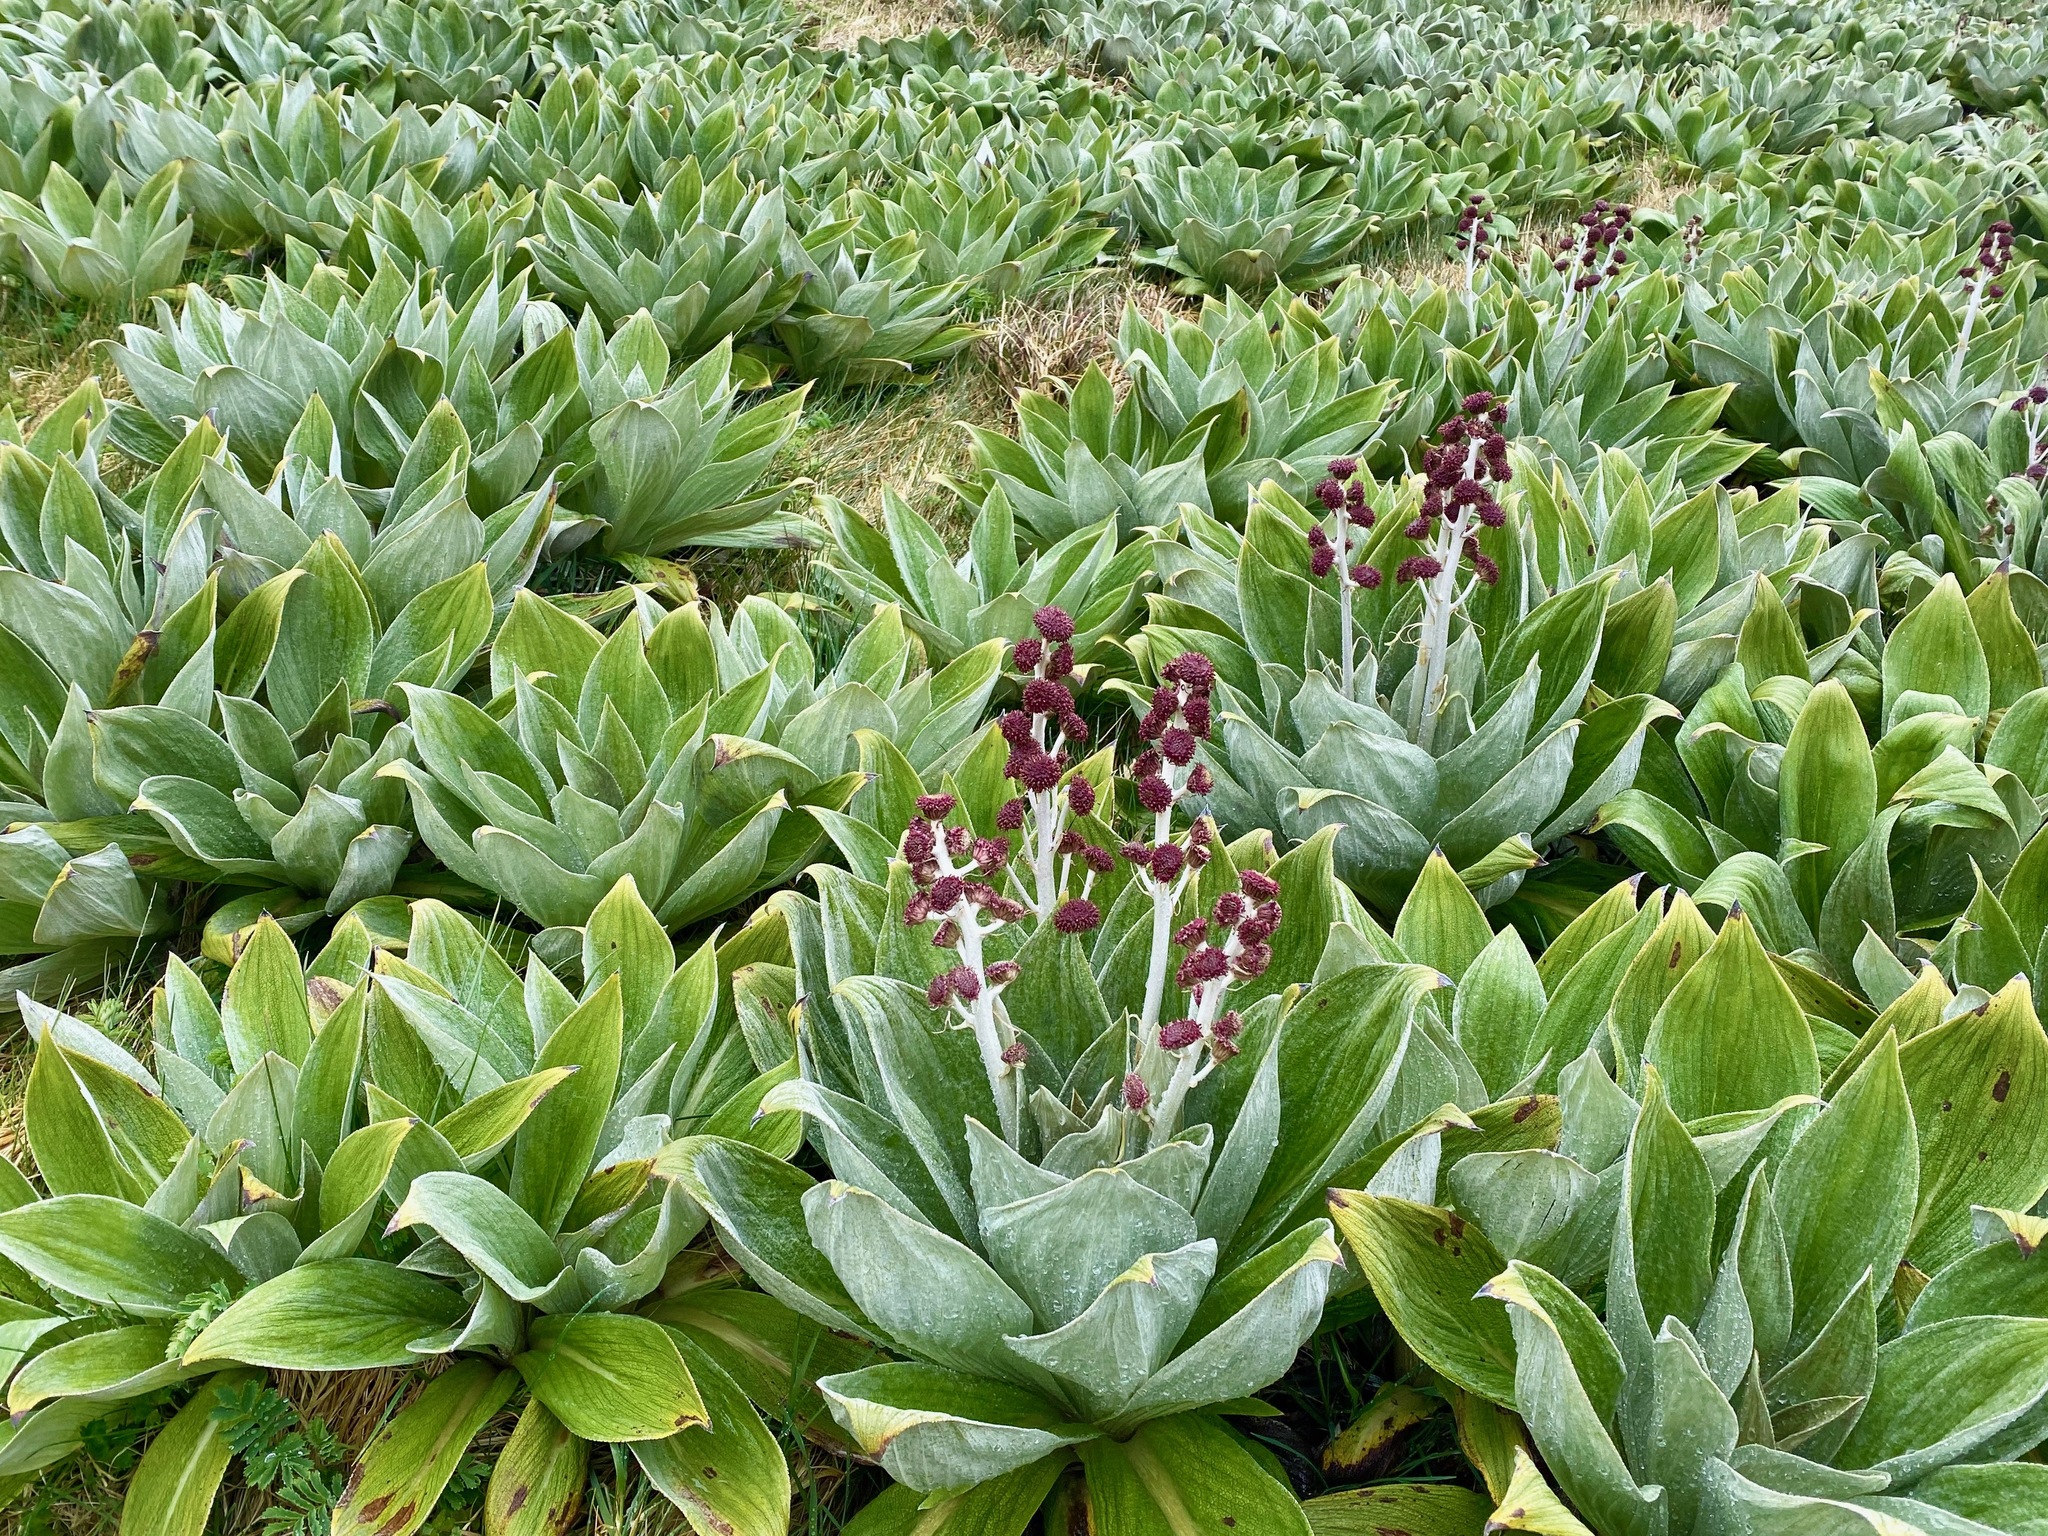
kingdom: Plantae
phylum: Tracheophyta
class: Magnoliopsida
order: Asterales
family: Asteraceae
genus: Pleurophyllum
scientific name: Pleurophyllum hookeri
